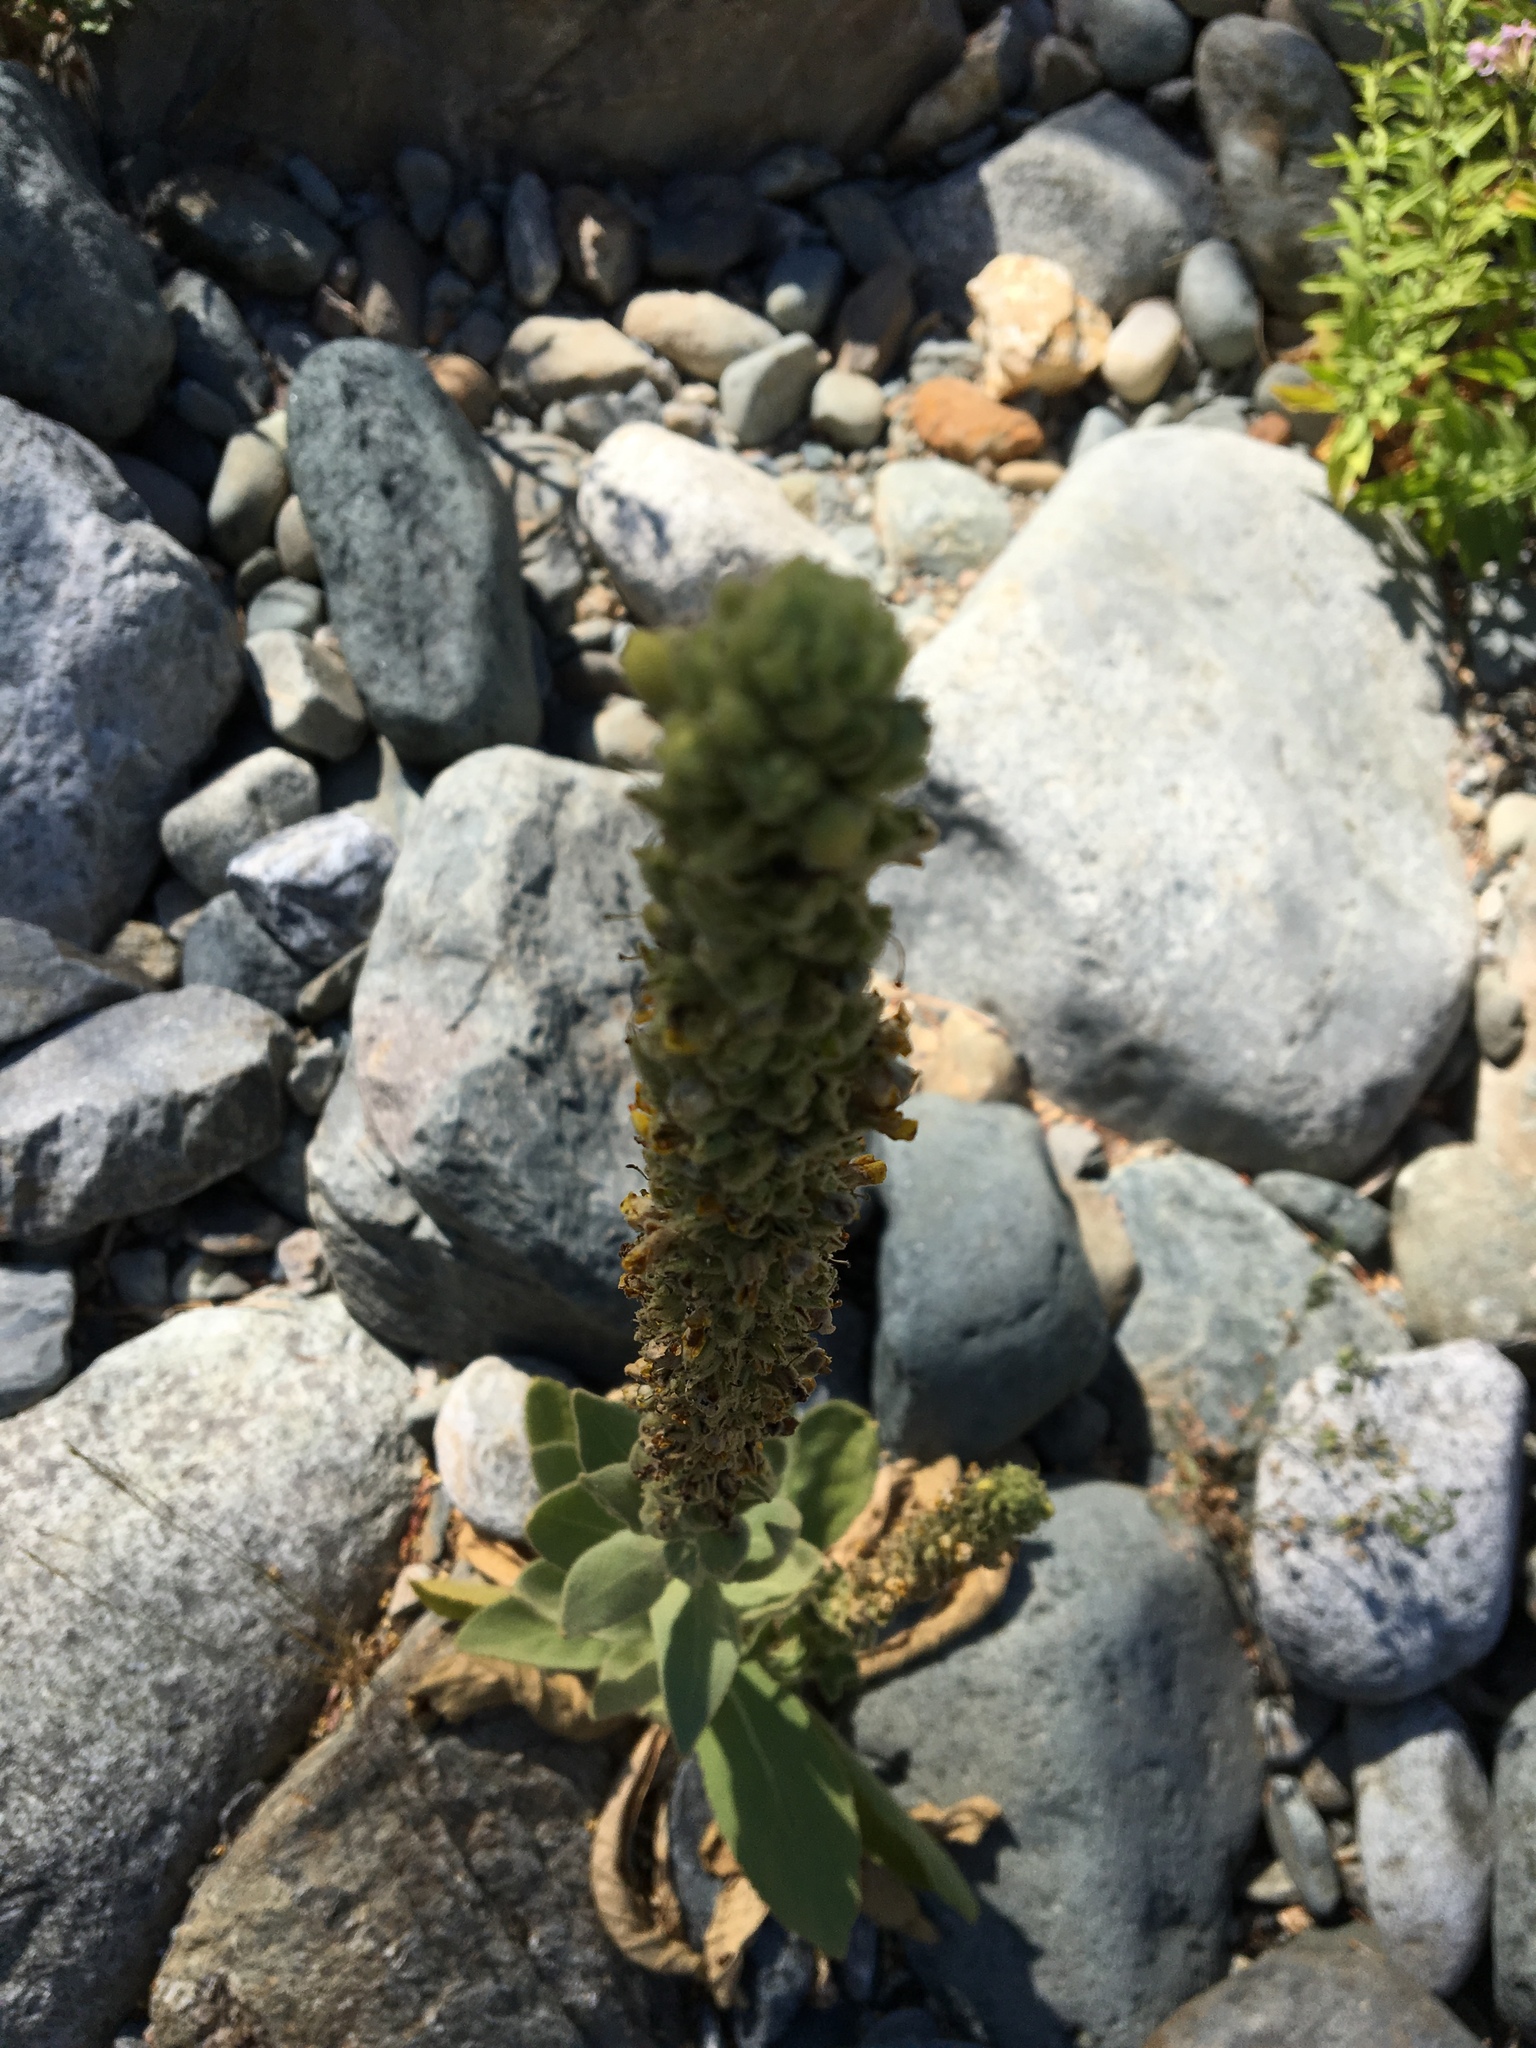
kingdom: Plantae
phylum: Tracheophyta
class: Magnoliopsida
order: Lamiales
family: Scrophulariaceae
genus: Verbascum
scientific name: Verbascum thapsus
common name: Common mullein
